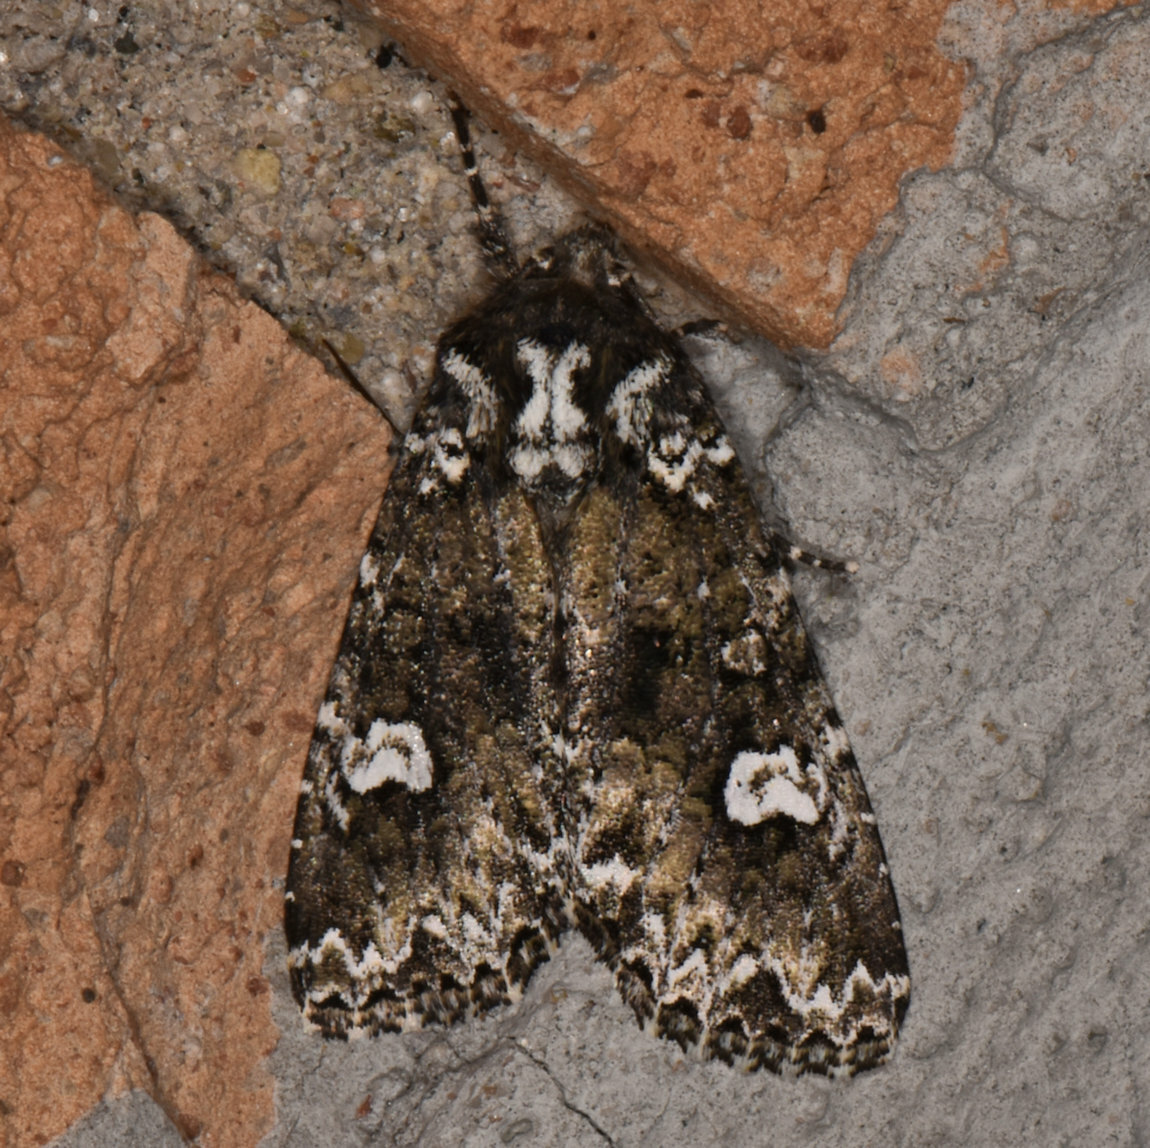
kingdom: Animalia
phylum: Arthropoda
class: Insecta
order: Lepidoptera
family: Noctuidae
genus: Melanchra
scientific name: Melanchra adjuncta
